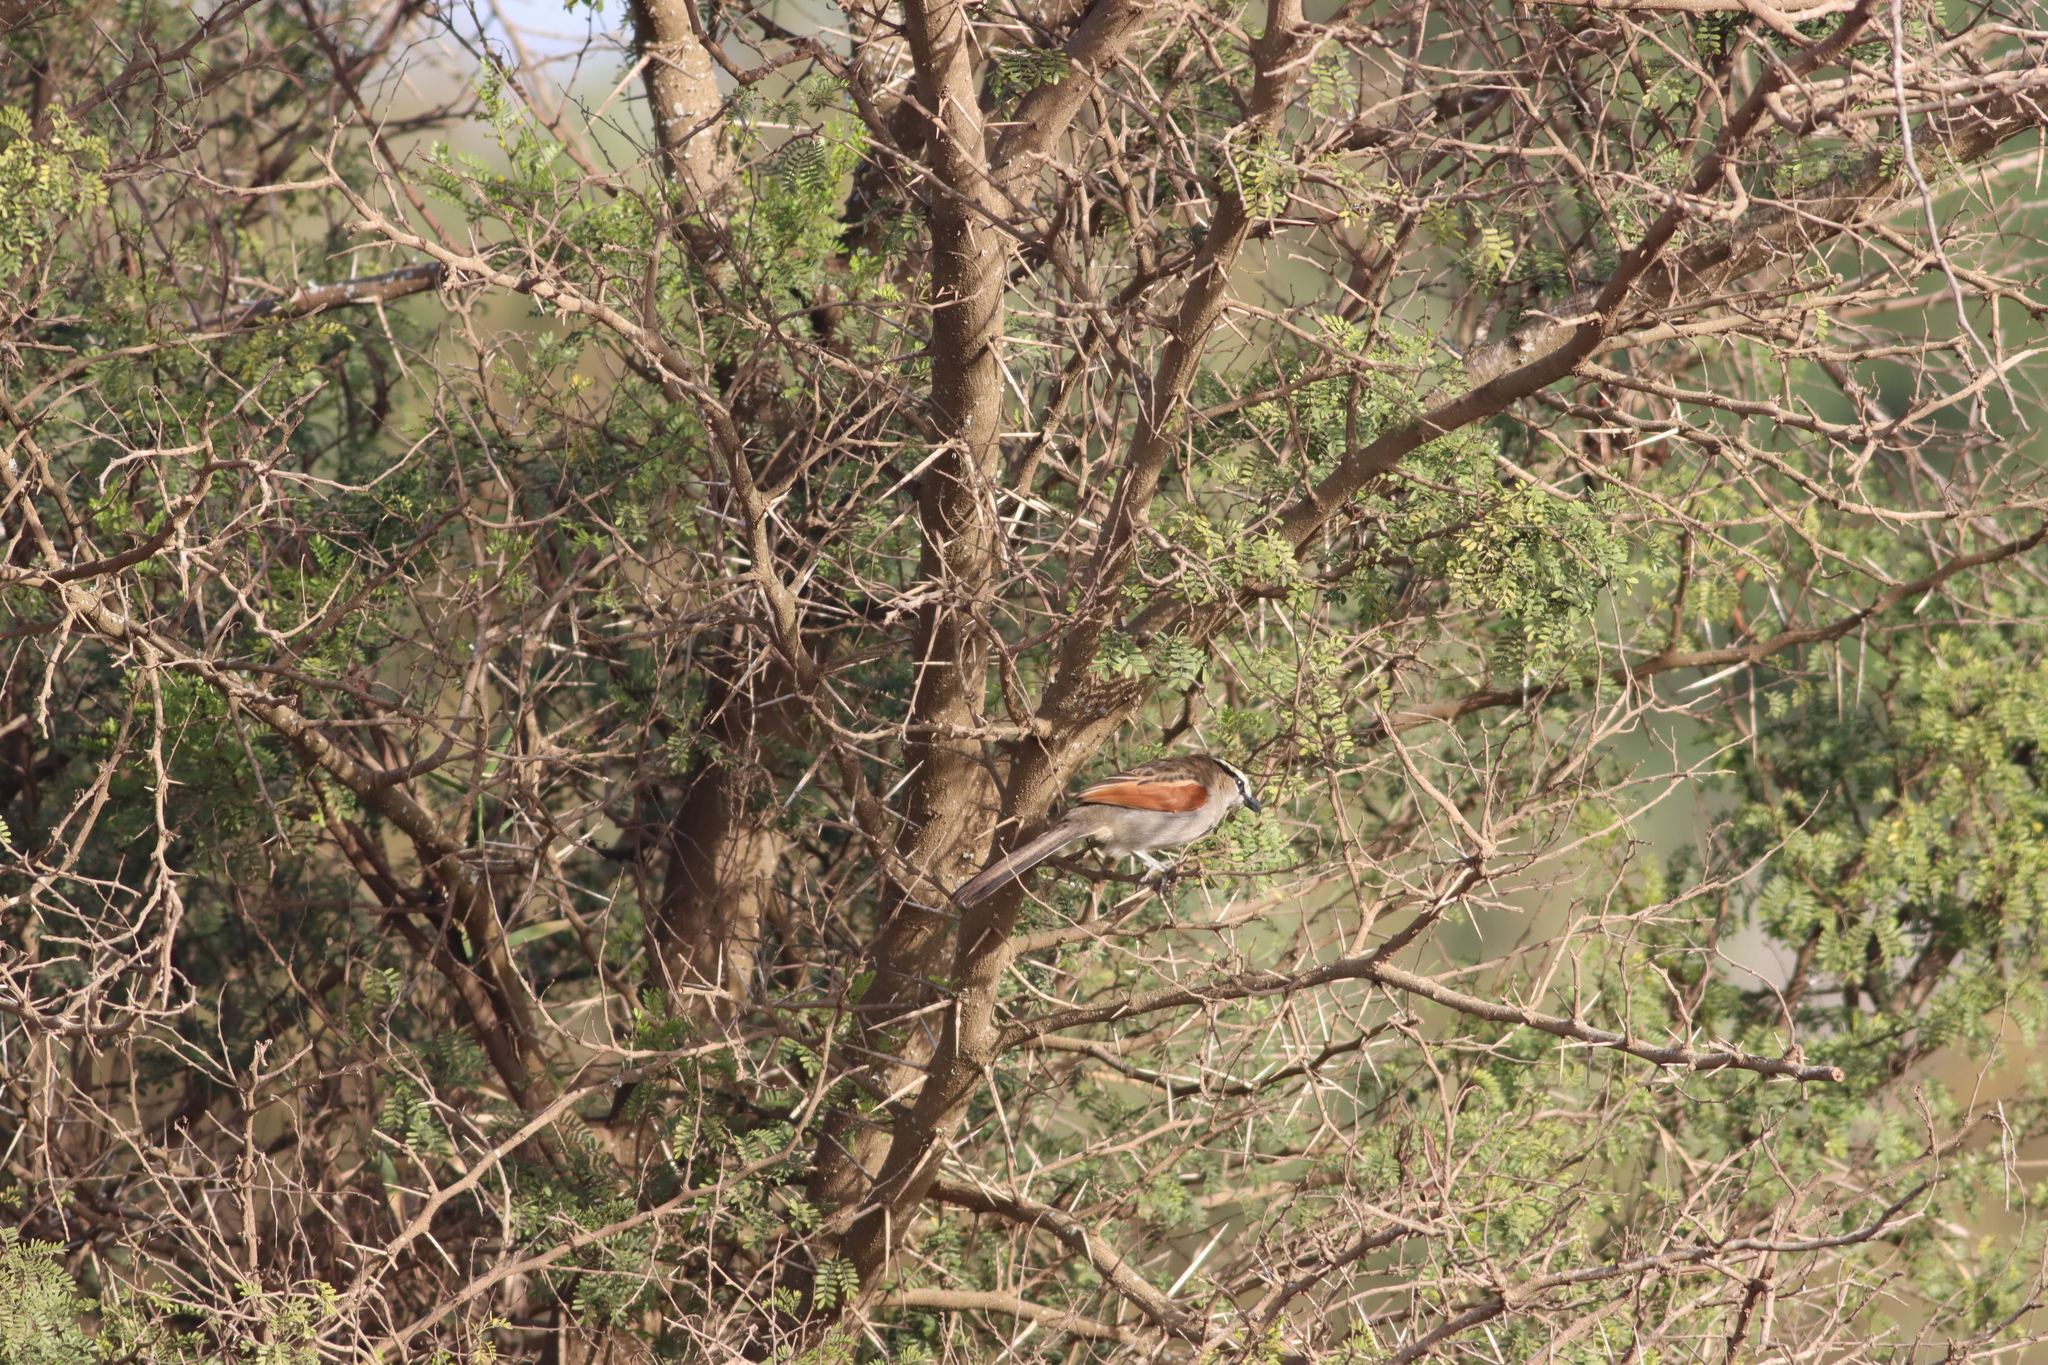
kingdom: Animalia
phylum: Chordata
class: Aves
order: Passeriformes
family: Malaconotidae
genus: Tchagra
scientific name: Tchagra senegalus
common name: Black-crowned tchagra
